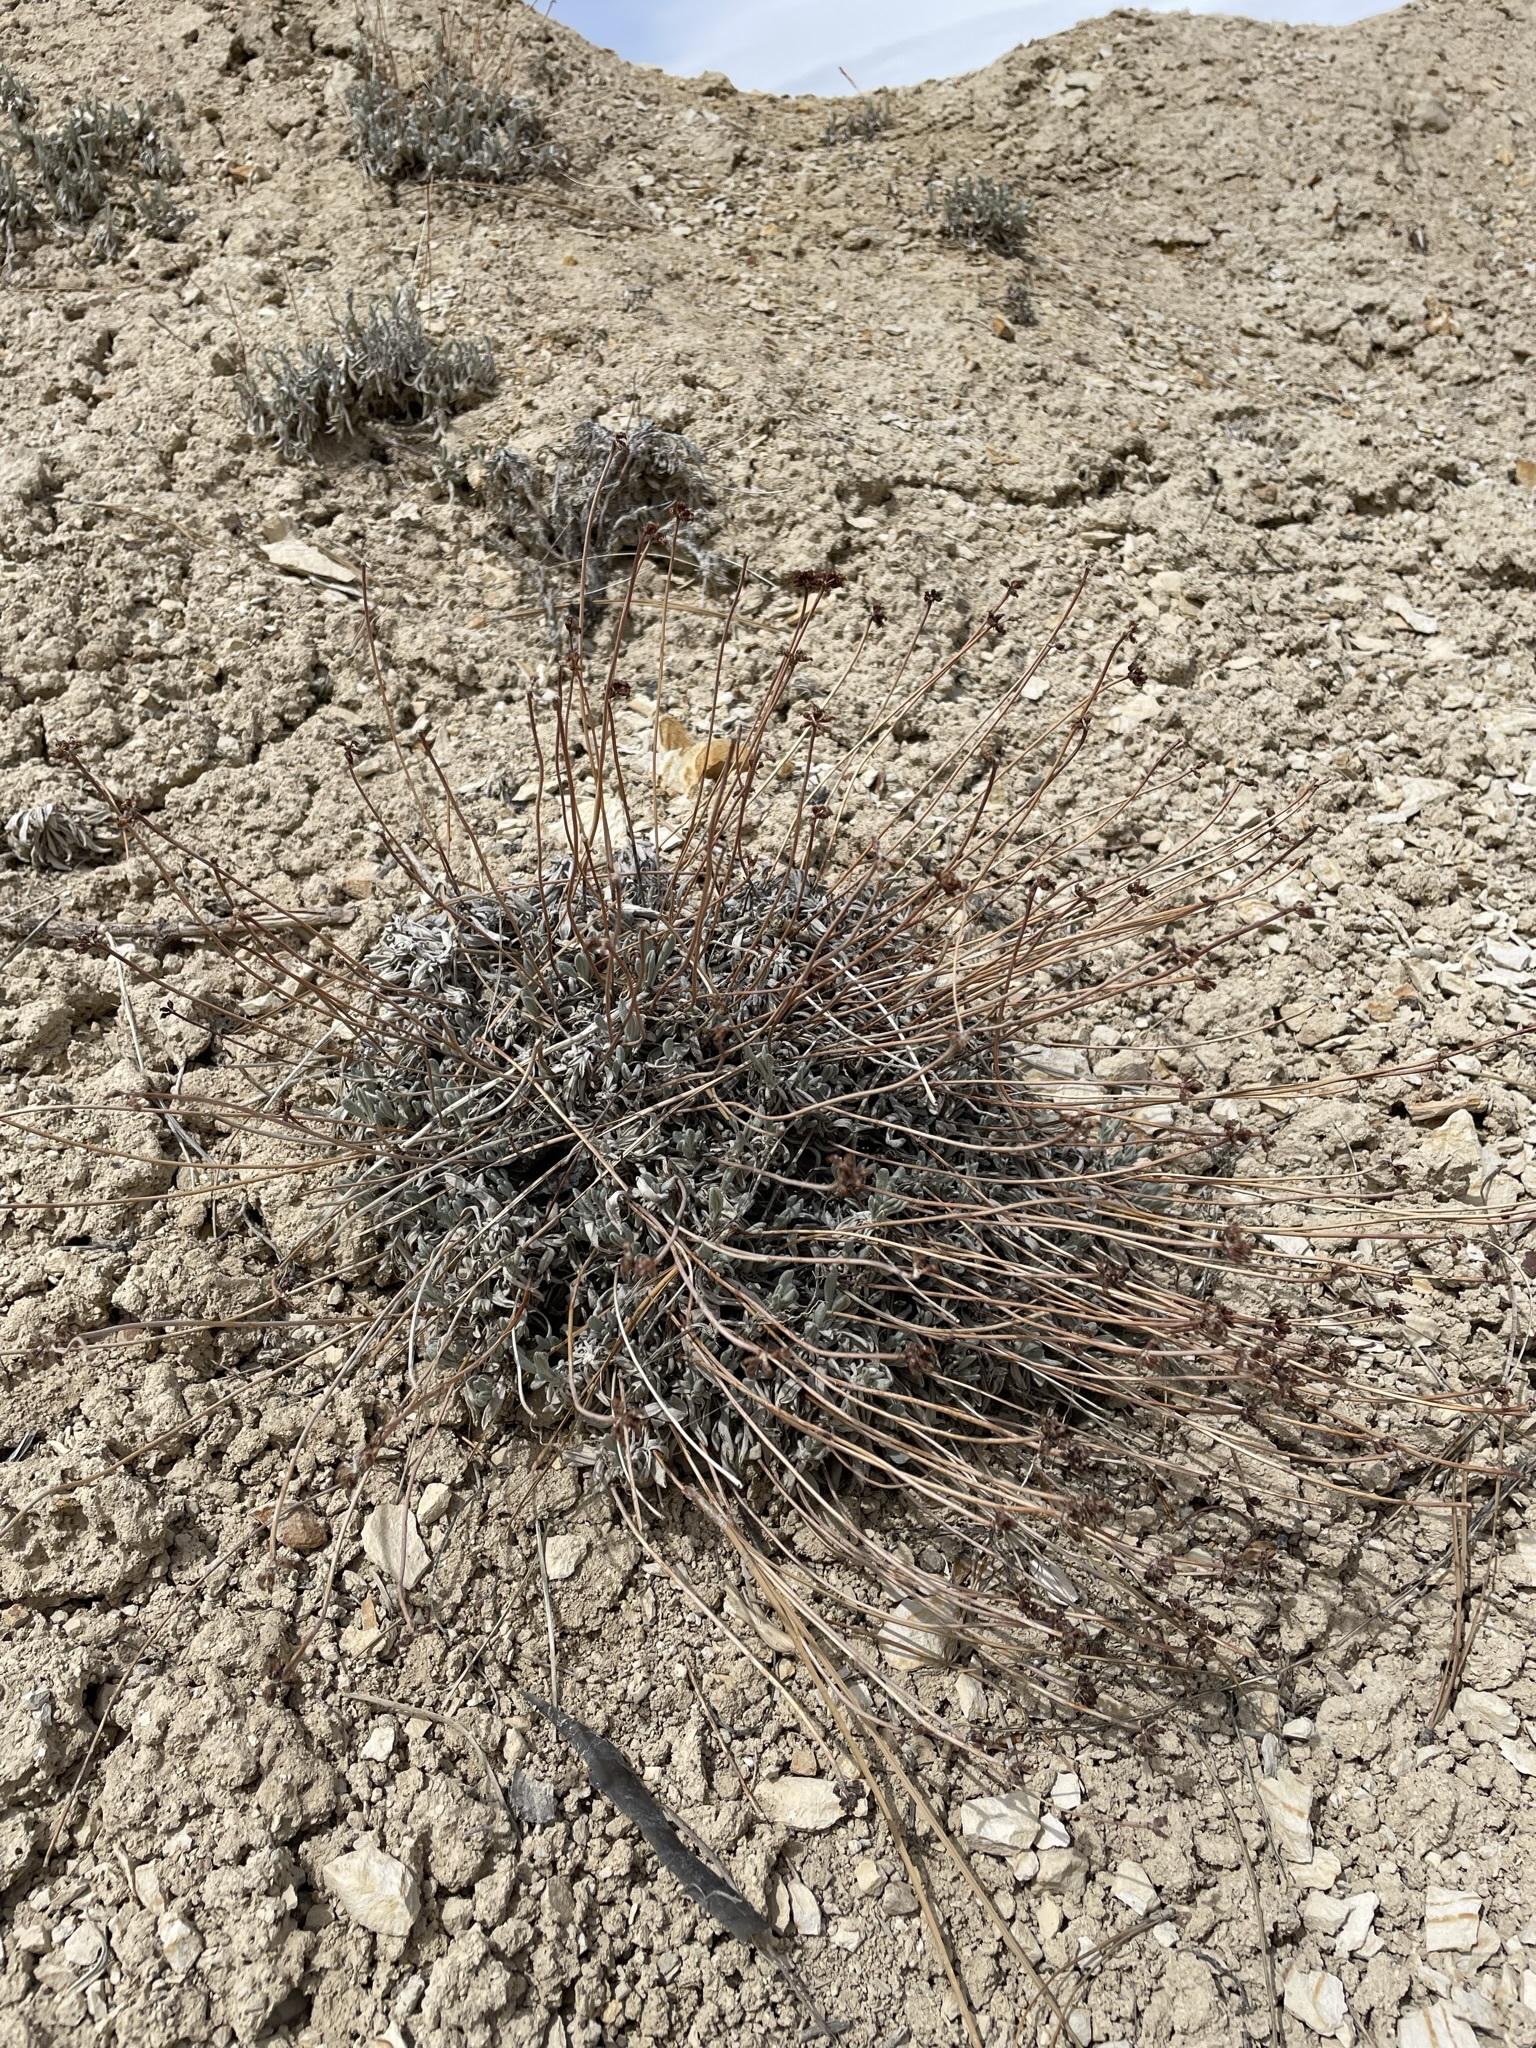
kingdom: Plantae
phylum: Tracheophyta
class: Magnoliopsida
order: Caryophyllales
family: Polygonaceae
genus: Eriogonum
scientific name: Eriogonum ochrocephalum
